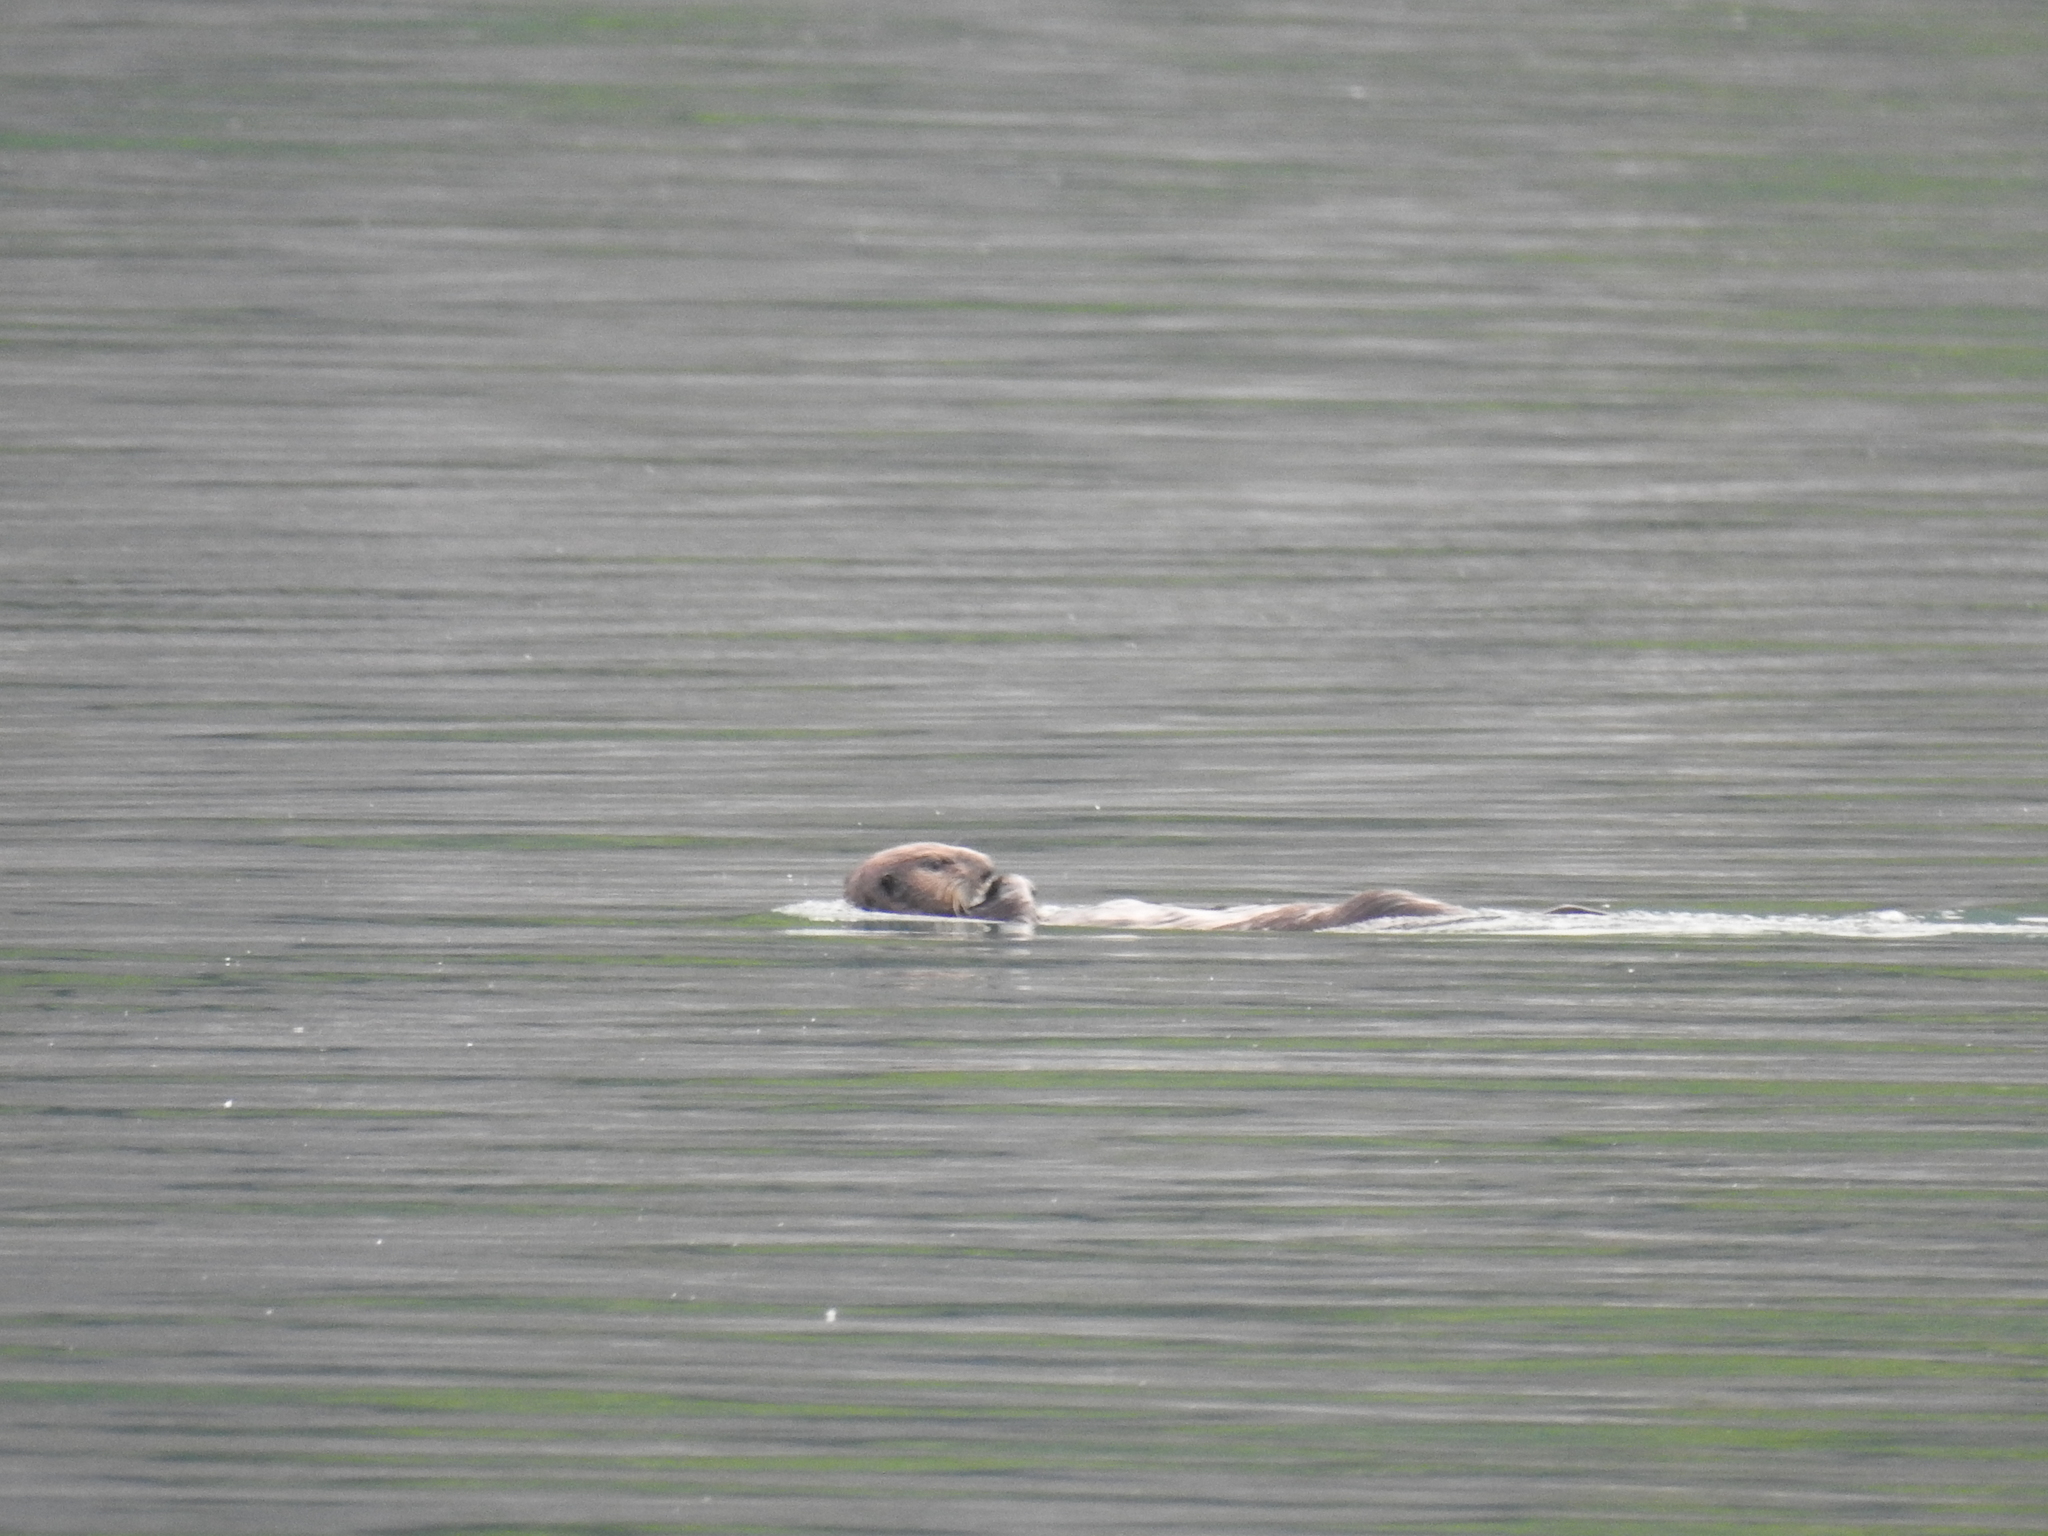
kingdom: Animalia
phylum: Chordata
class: Mammalia
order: Carnivora
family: Mustelidae
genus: Enhydra
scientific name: Enhydra lutris
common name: Sea otter
